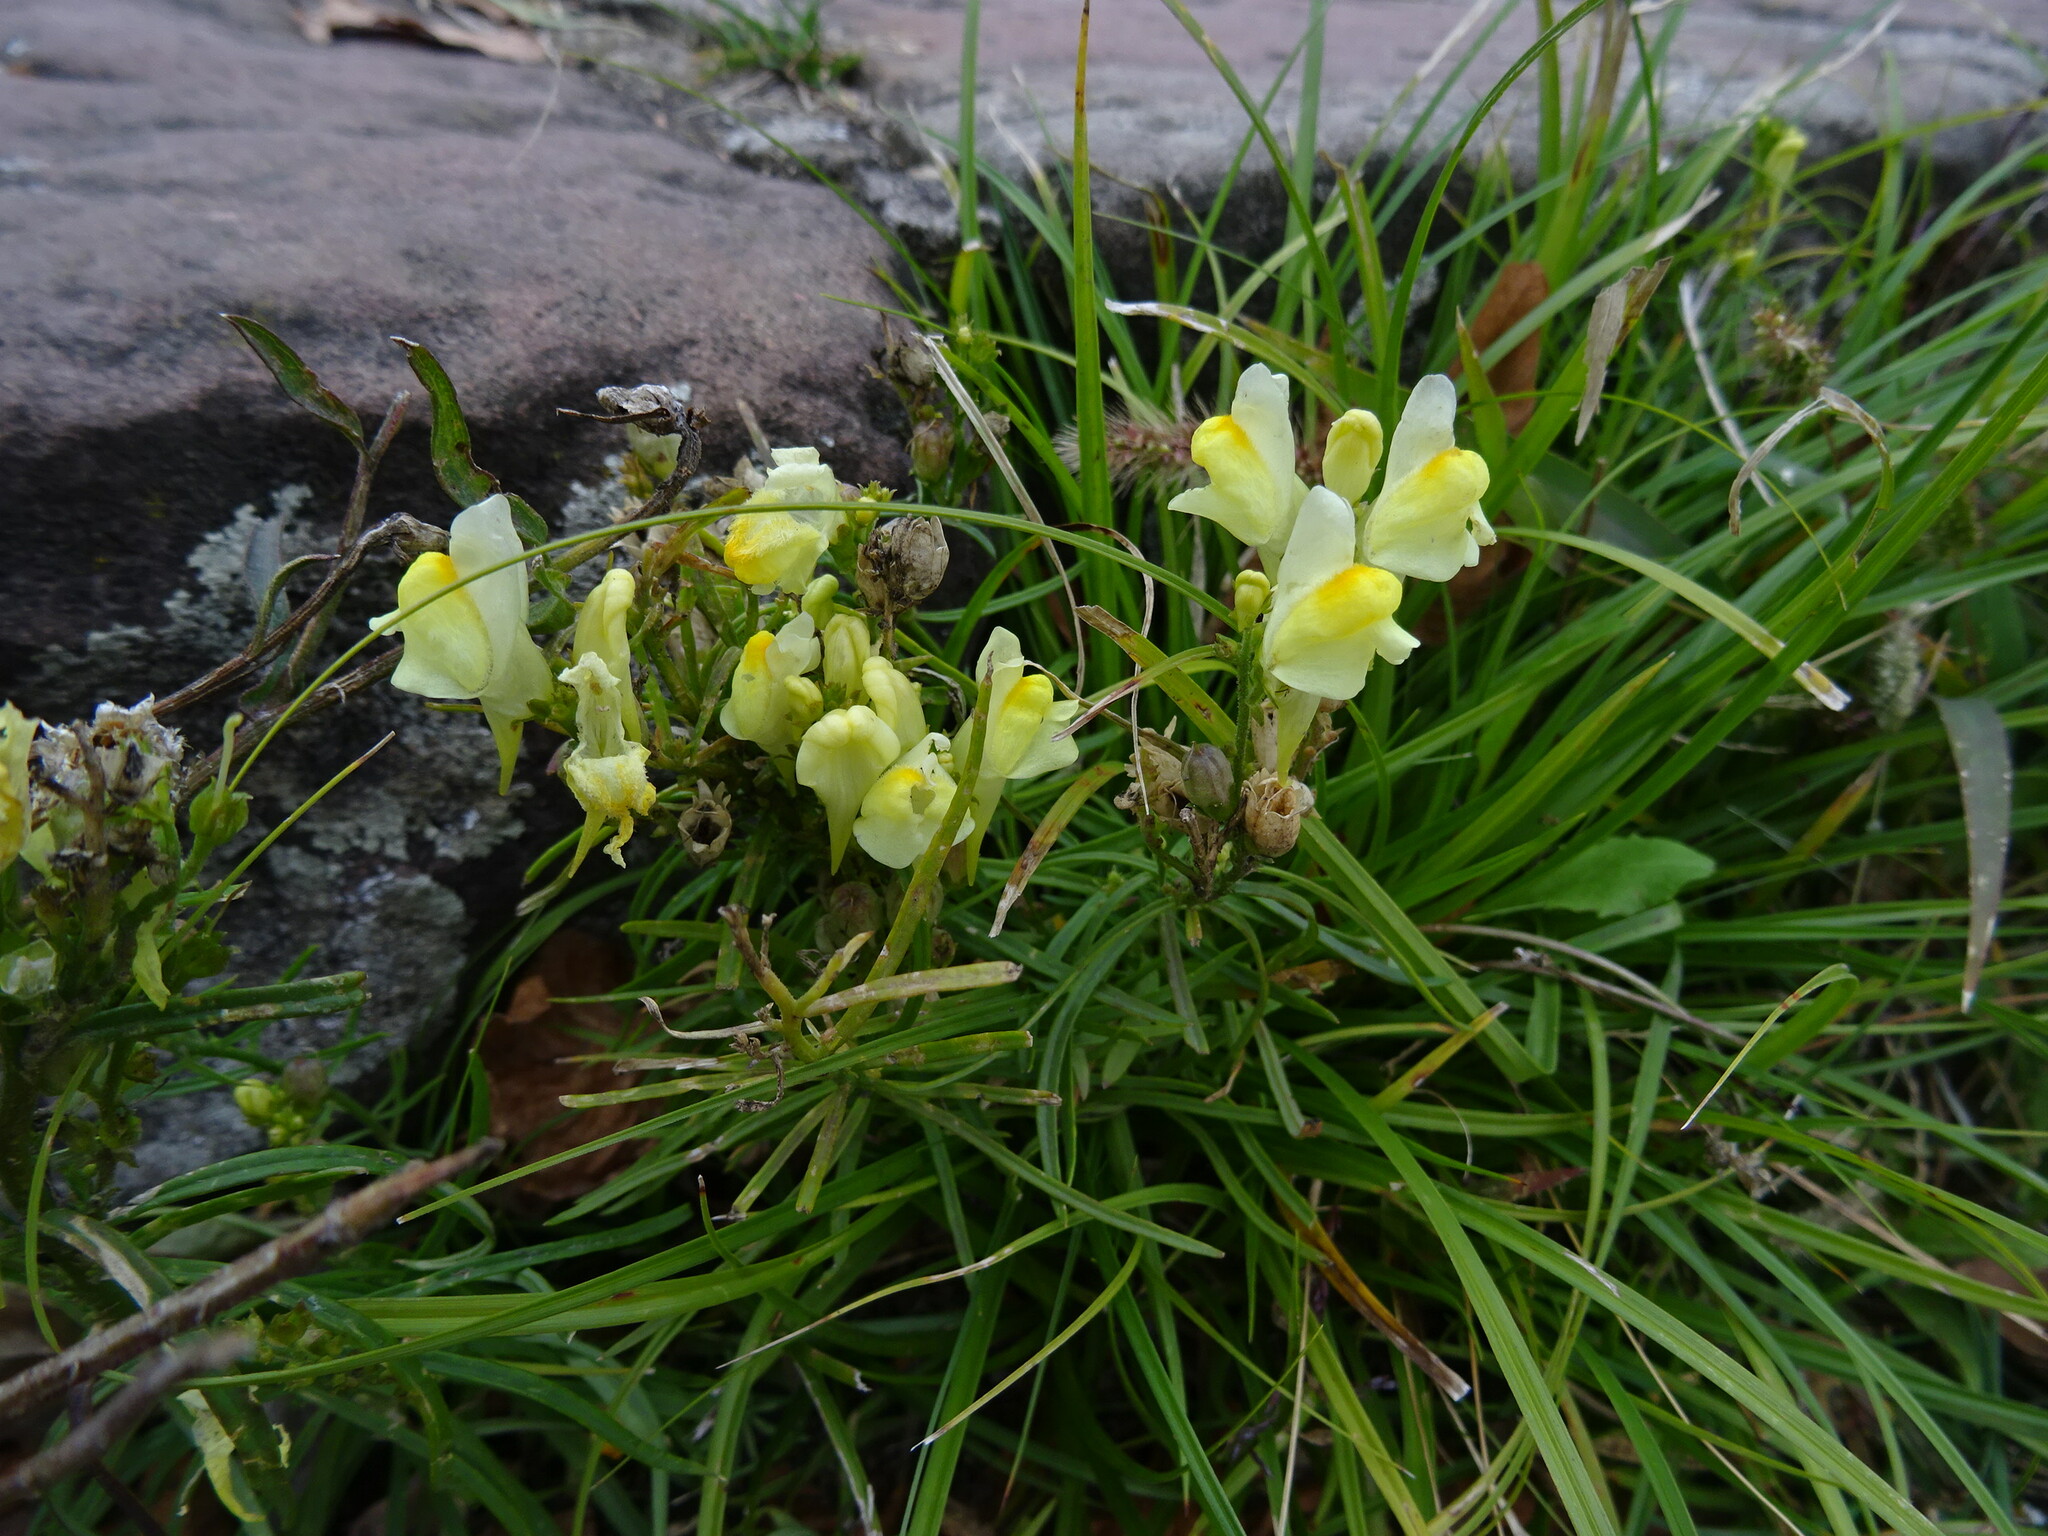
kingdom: Plantae
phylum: Tracheophyta
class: Magnoliopsida
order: Lamiales
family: Plantaginaceae
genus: Linaria
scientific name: Linaria vulgaris
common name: Butter and eggs
